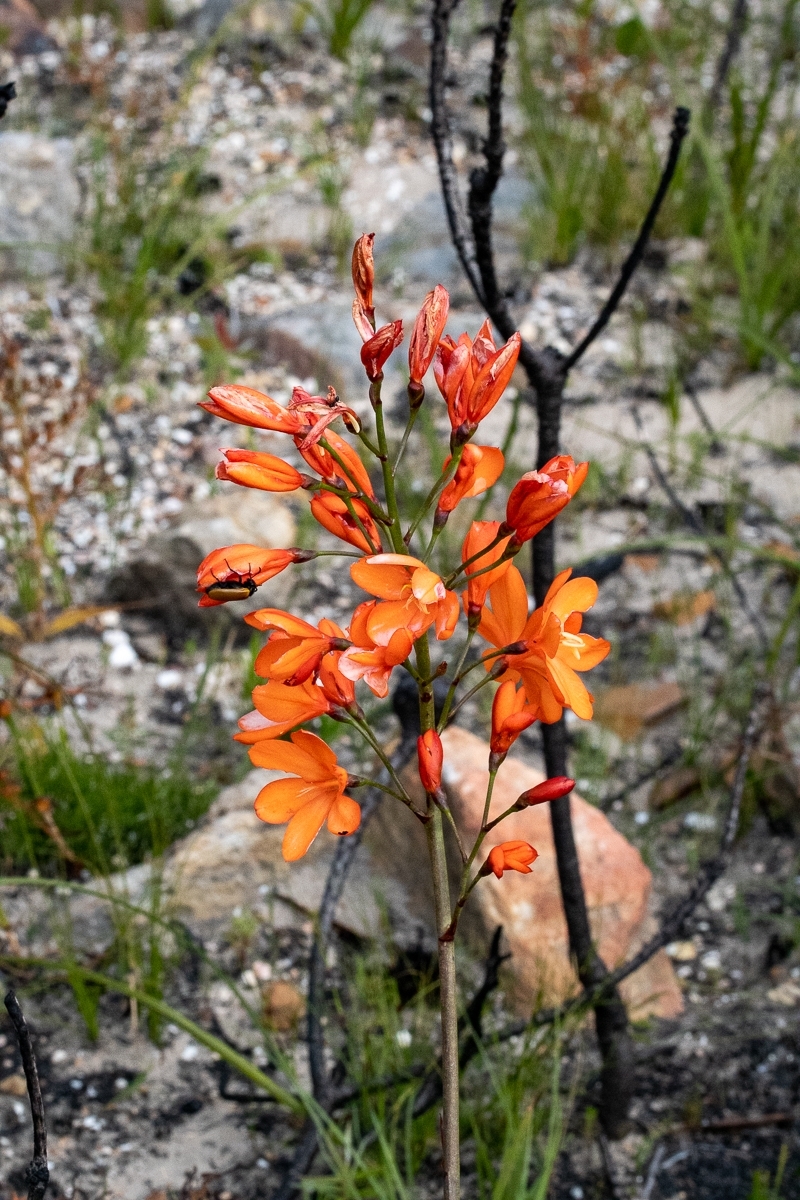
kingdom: Plantae
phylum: Tracheophyta
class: Liliopsida
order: Asparagales
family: Iridaceae
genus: Pillansia
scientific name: Pillansia templemannii
